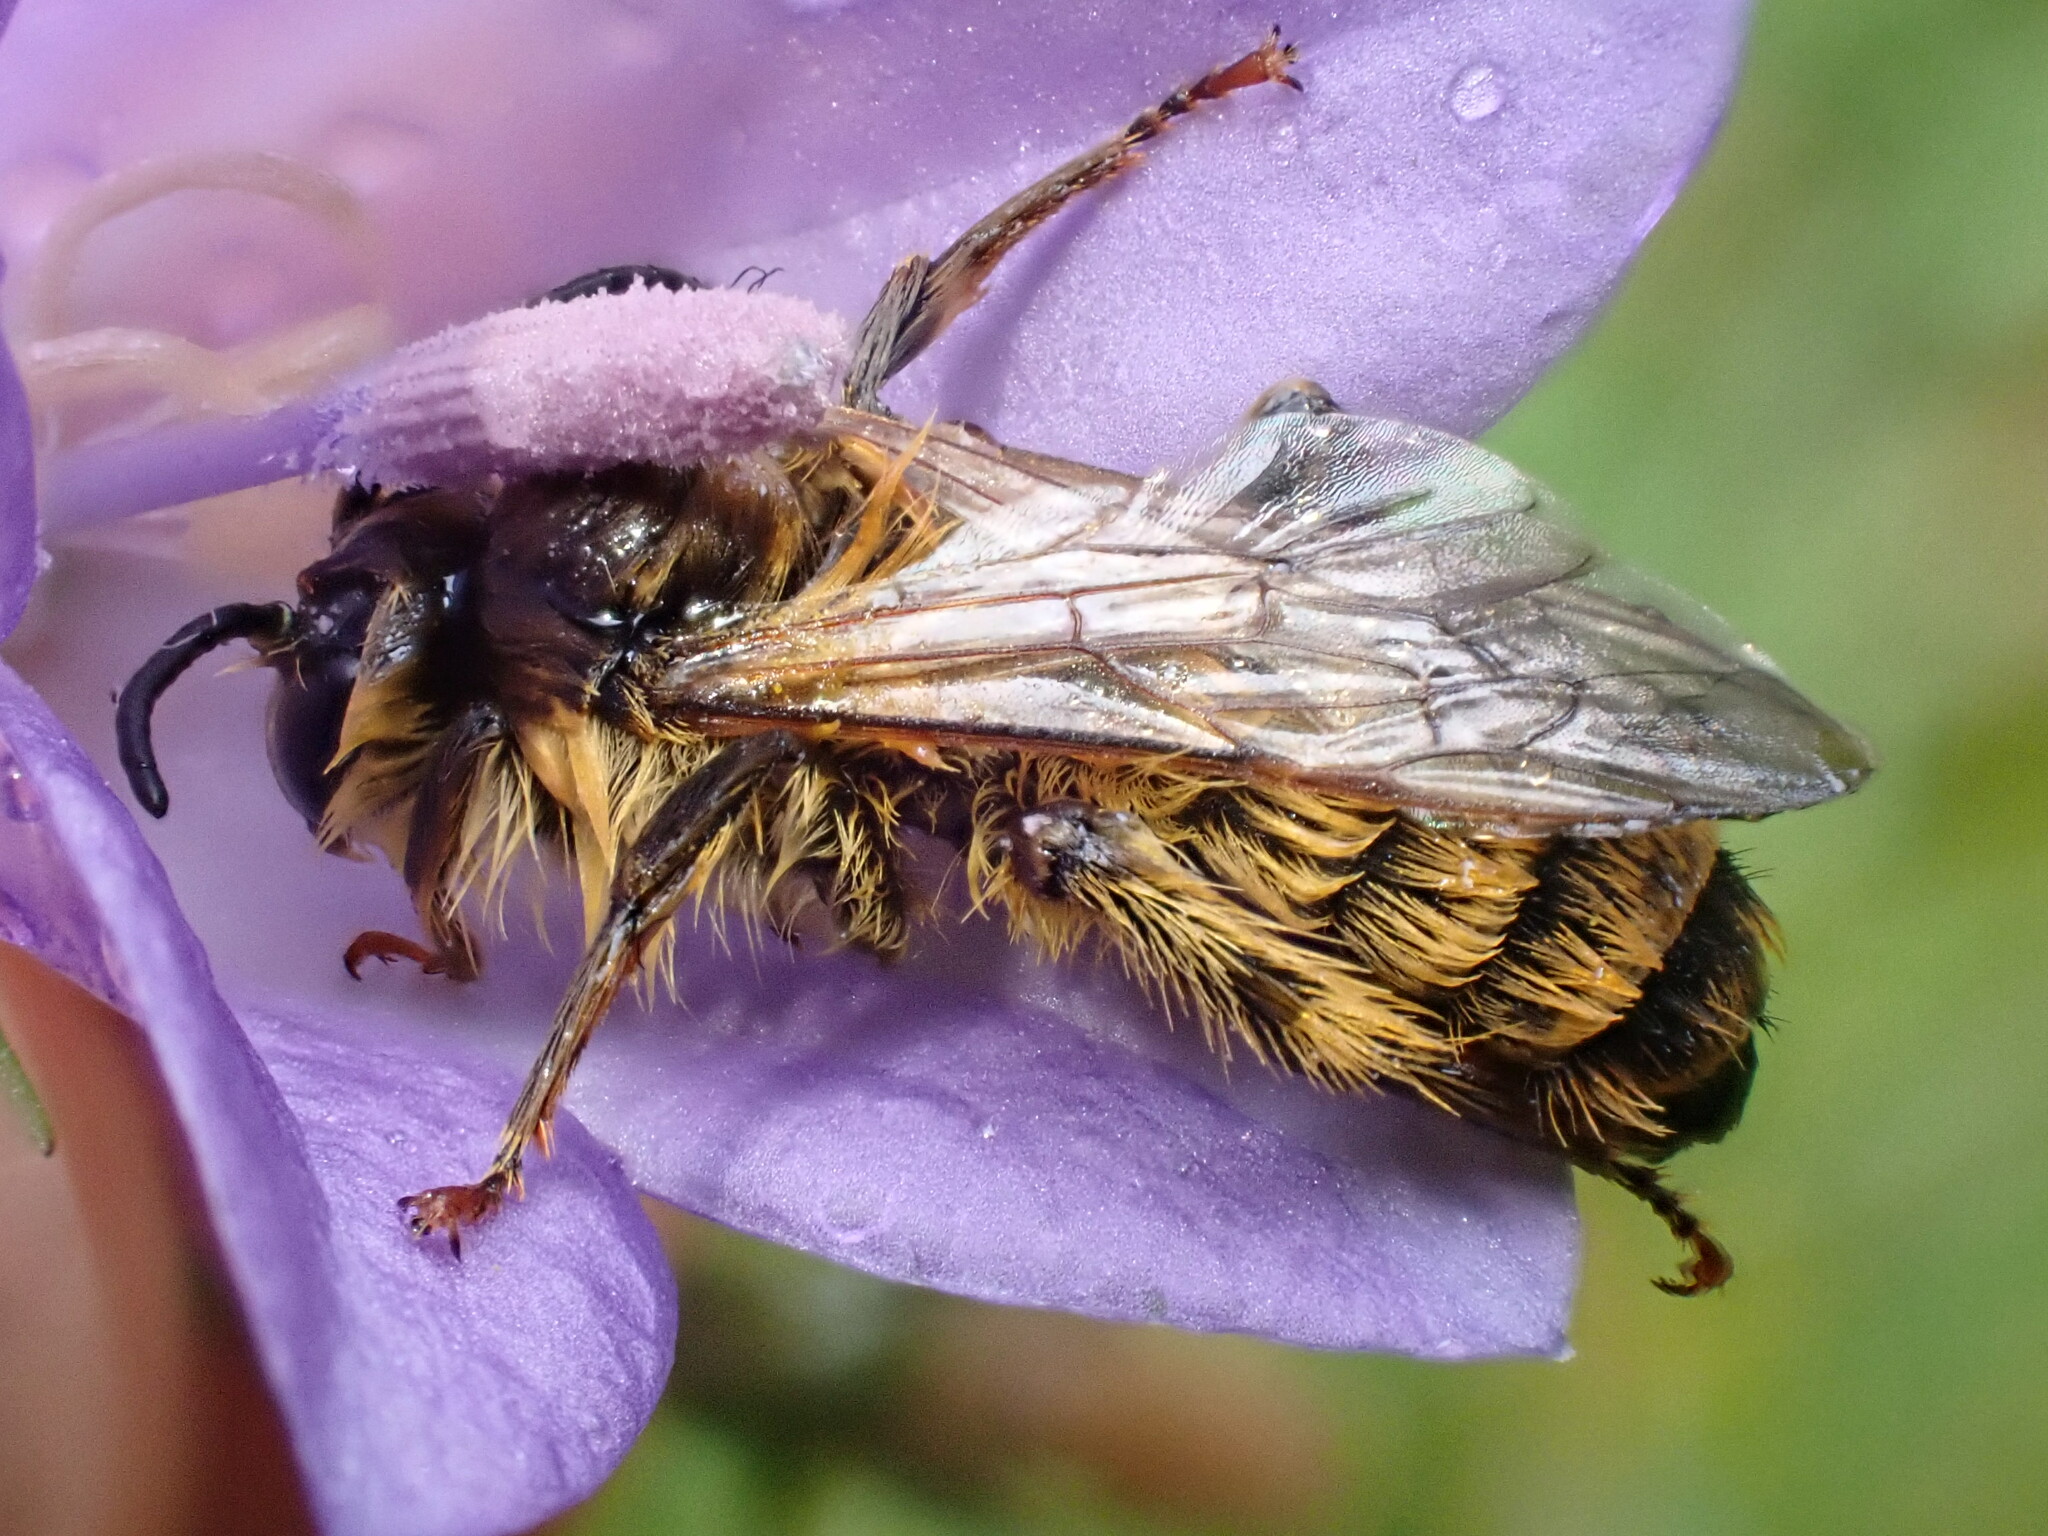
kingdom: Animalia
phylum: Arthropoda
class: Insecta
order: Hymenoptera
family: Melittidae
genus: Dasypoda
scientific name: Dasypoda hirtipes
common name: Pantaloon bee
